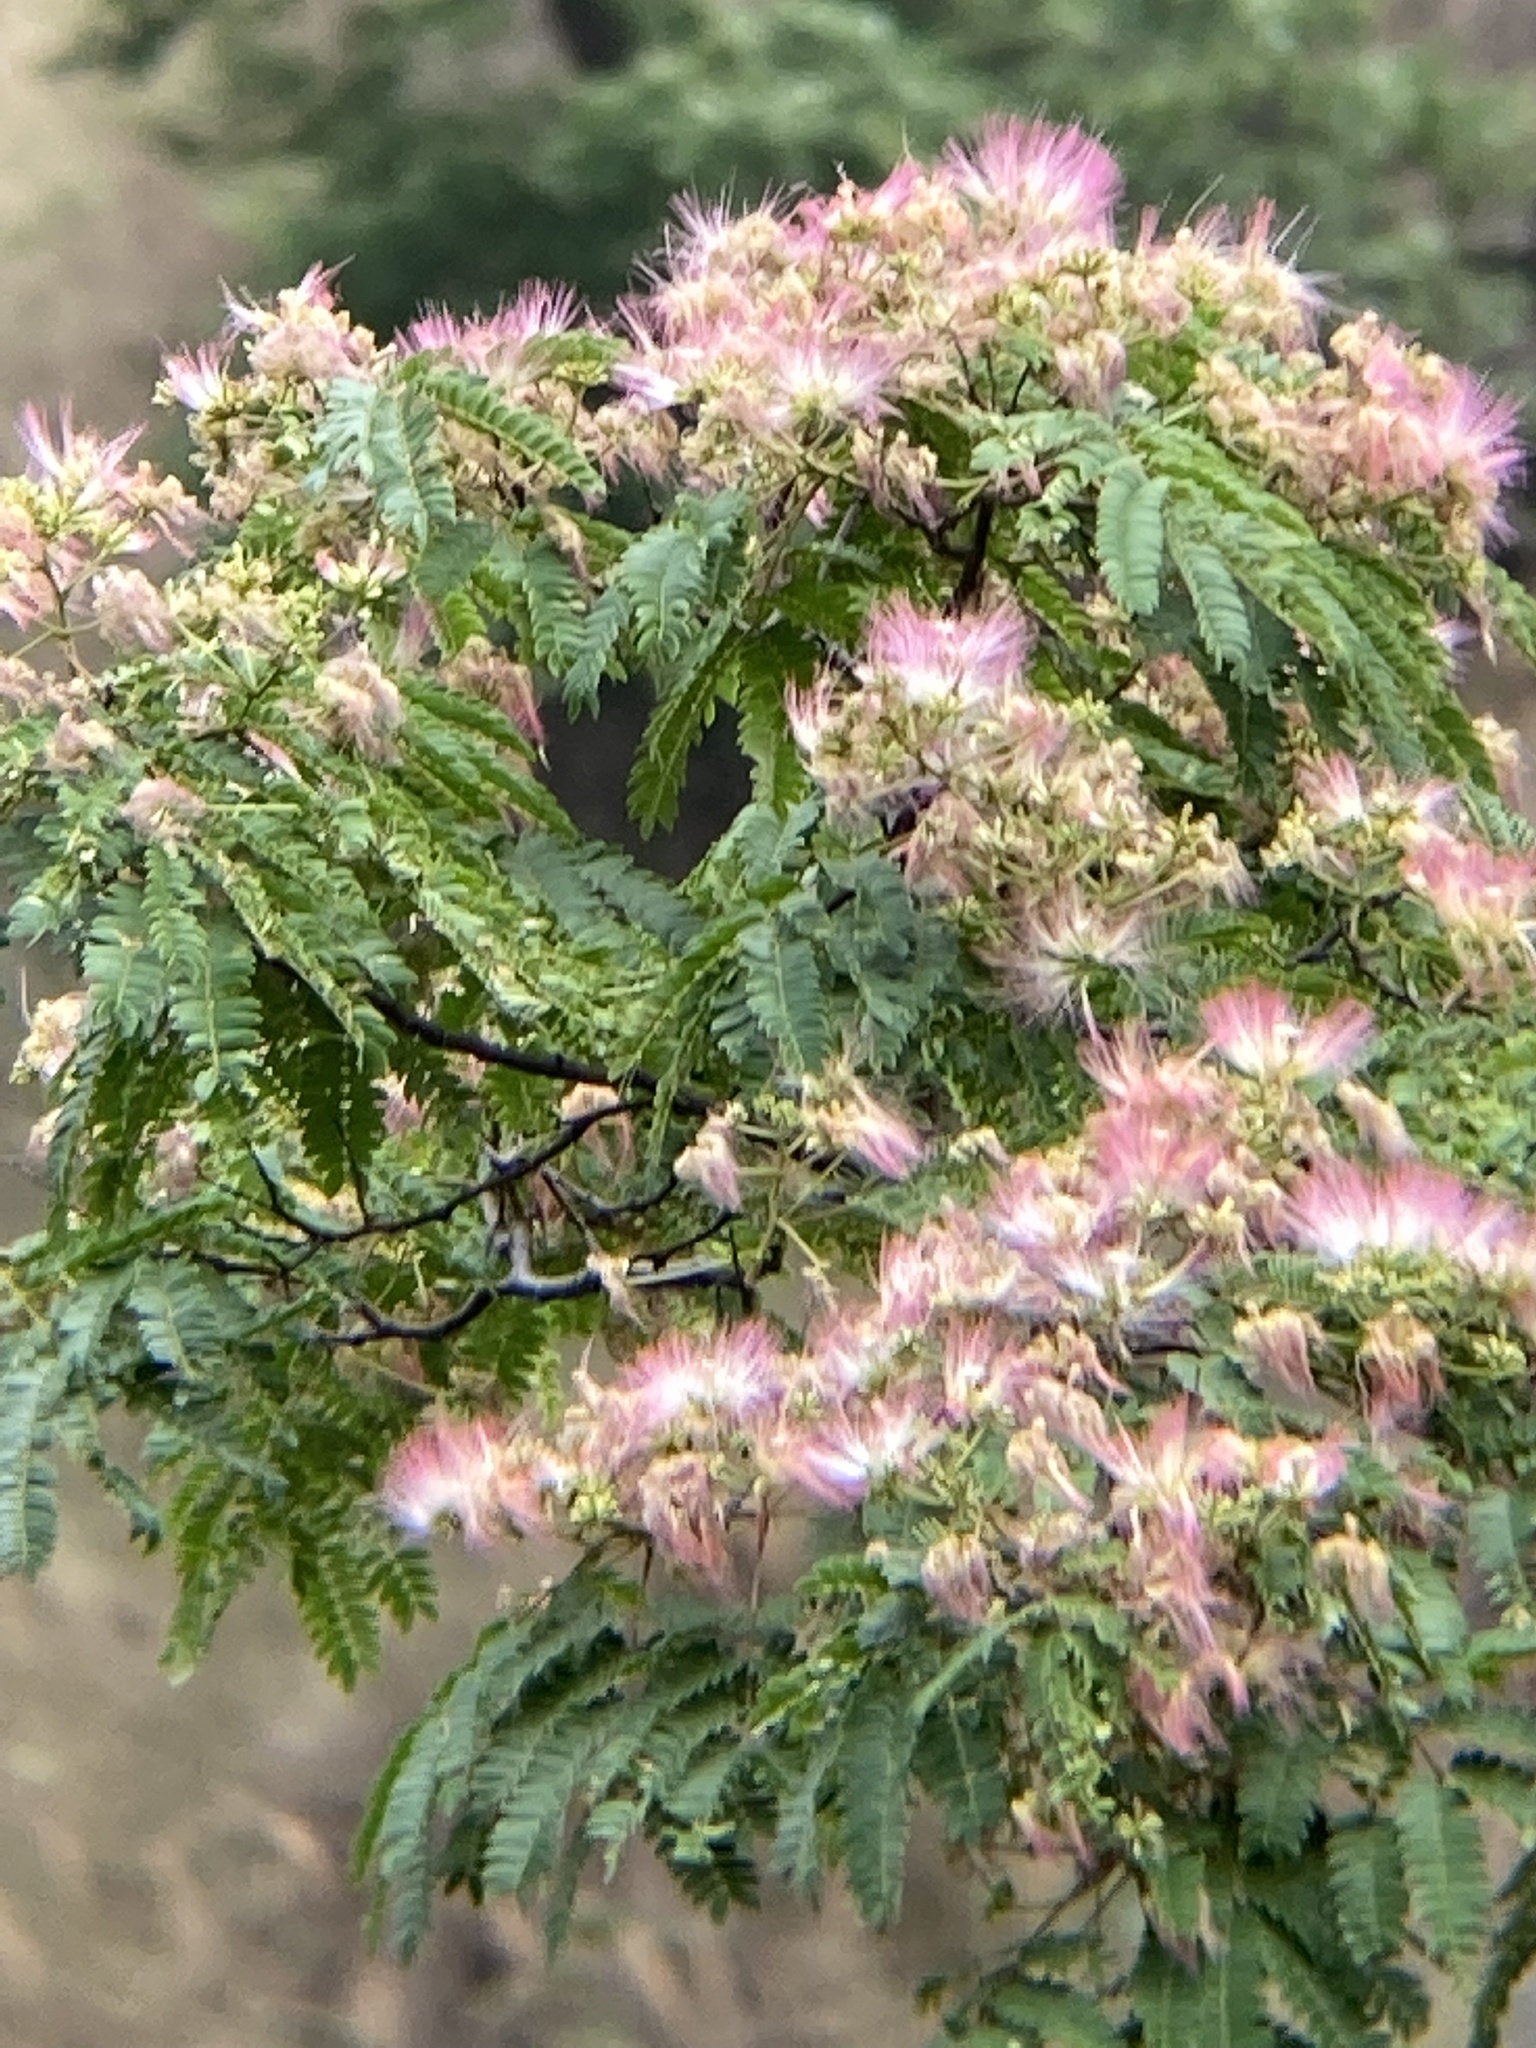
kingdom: Plantae
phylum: Tracheophyta
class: Magnoliopsida
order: Fabales
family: Fabaceae
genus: Albizia
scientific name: Albizia julibrissin
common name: Silktree
